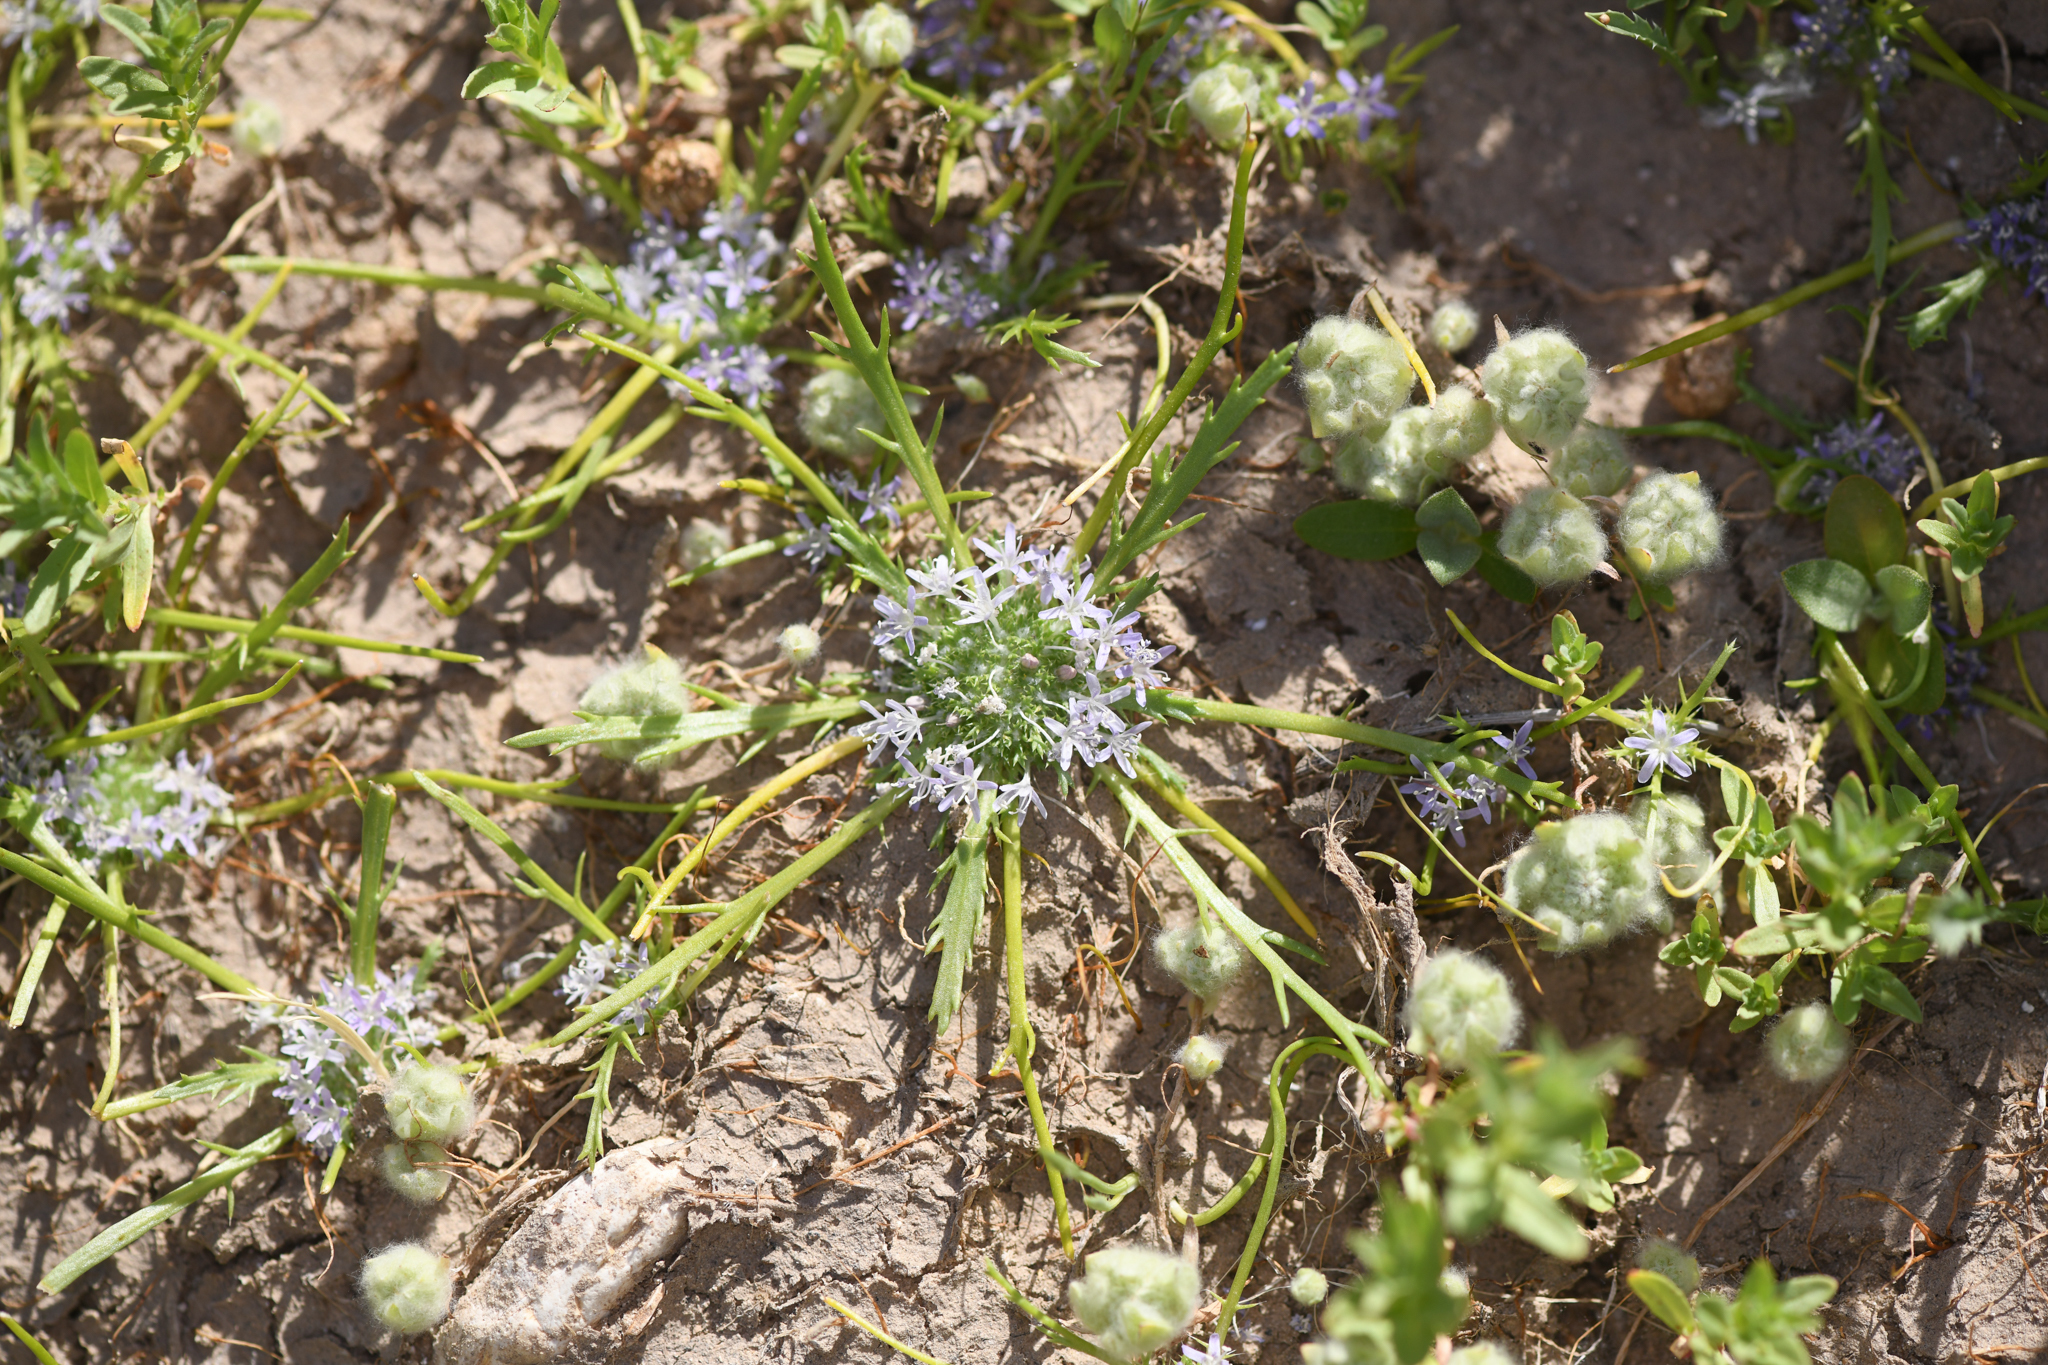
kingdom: Plantae
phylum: Tracheophyta
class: Magnoliopsida
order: Ericales
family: Polemoniaceae
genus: Navarretia
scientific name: Navarretia prostrata
